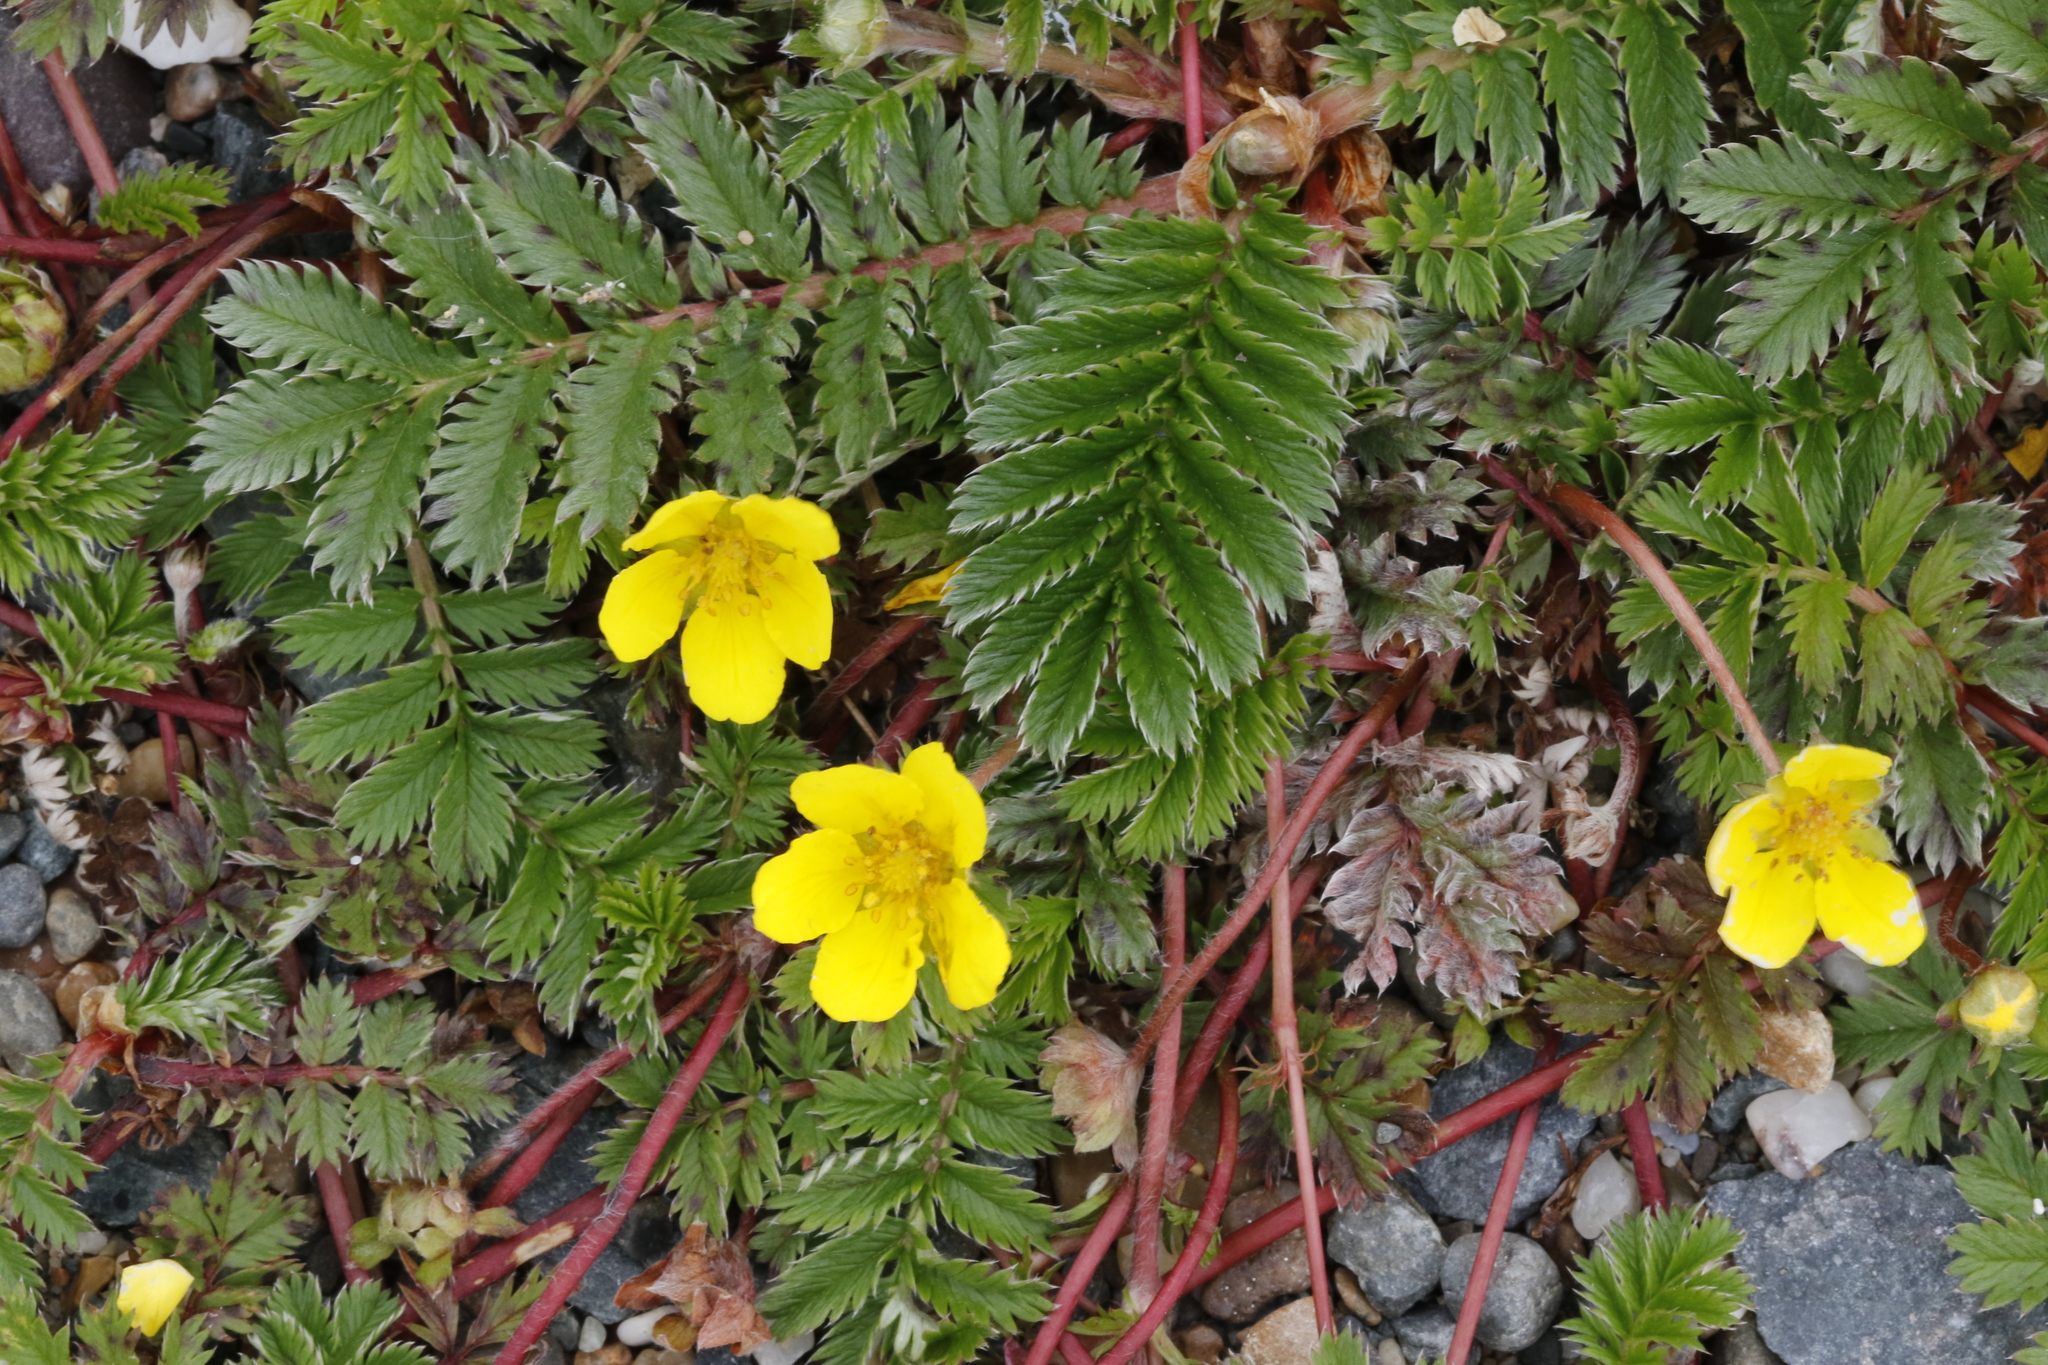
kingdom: Plantae
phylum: Tracheophyta
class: Magnoliopsida
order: Rosales
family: Rosaceae
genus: Argentina
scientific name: Argentina anserina
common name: Common silverweed
